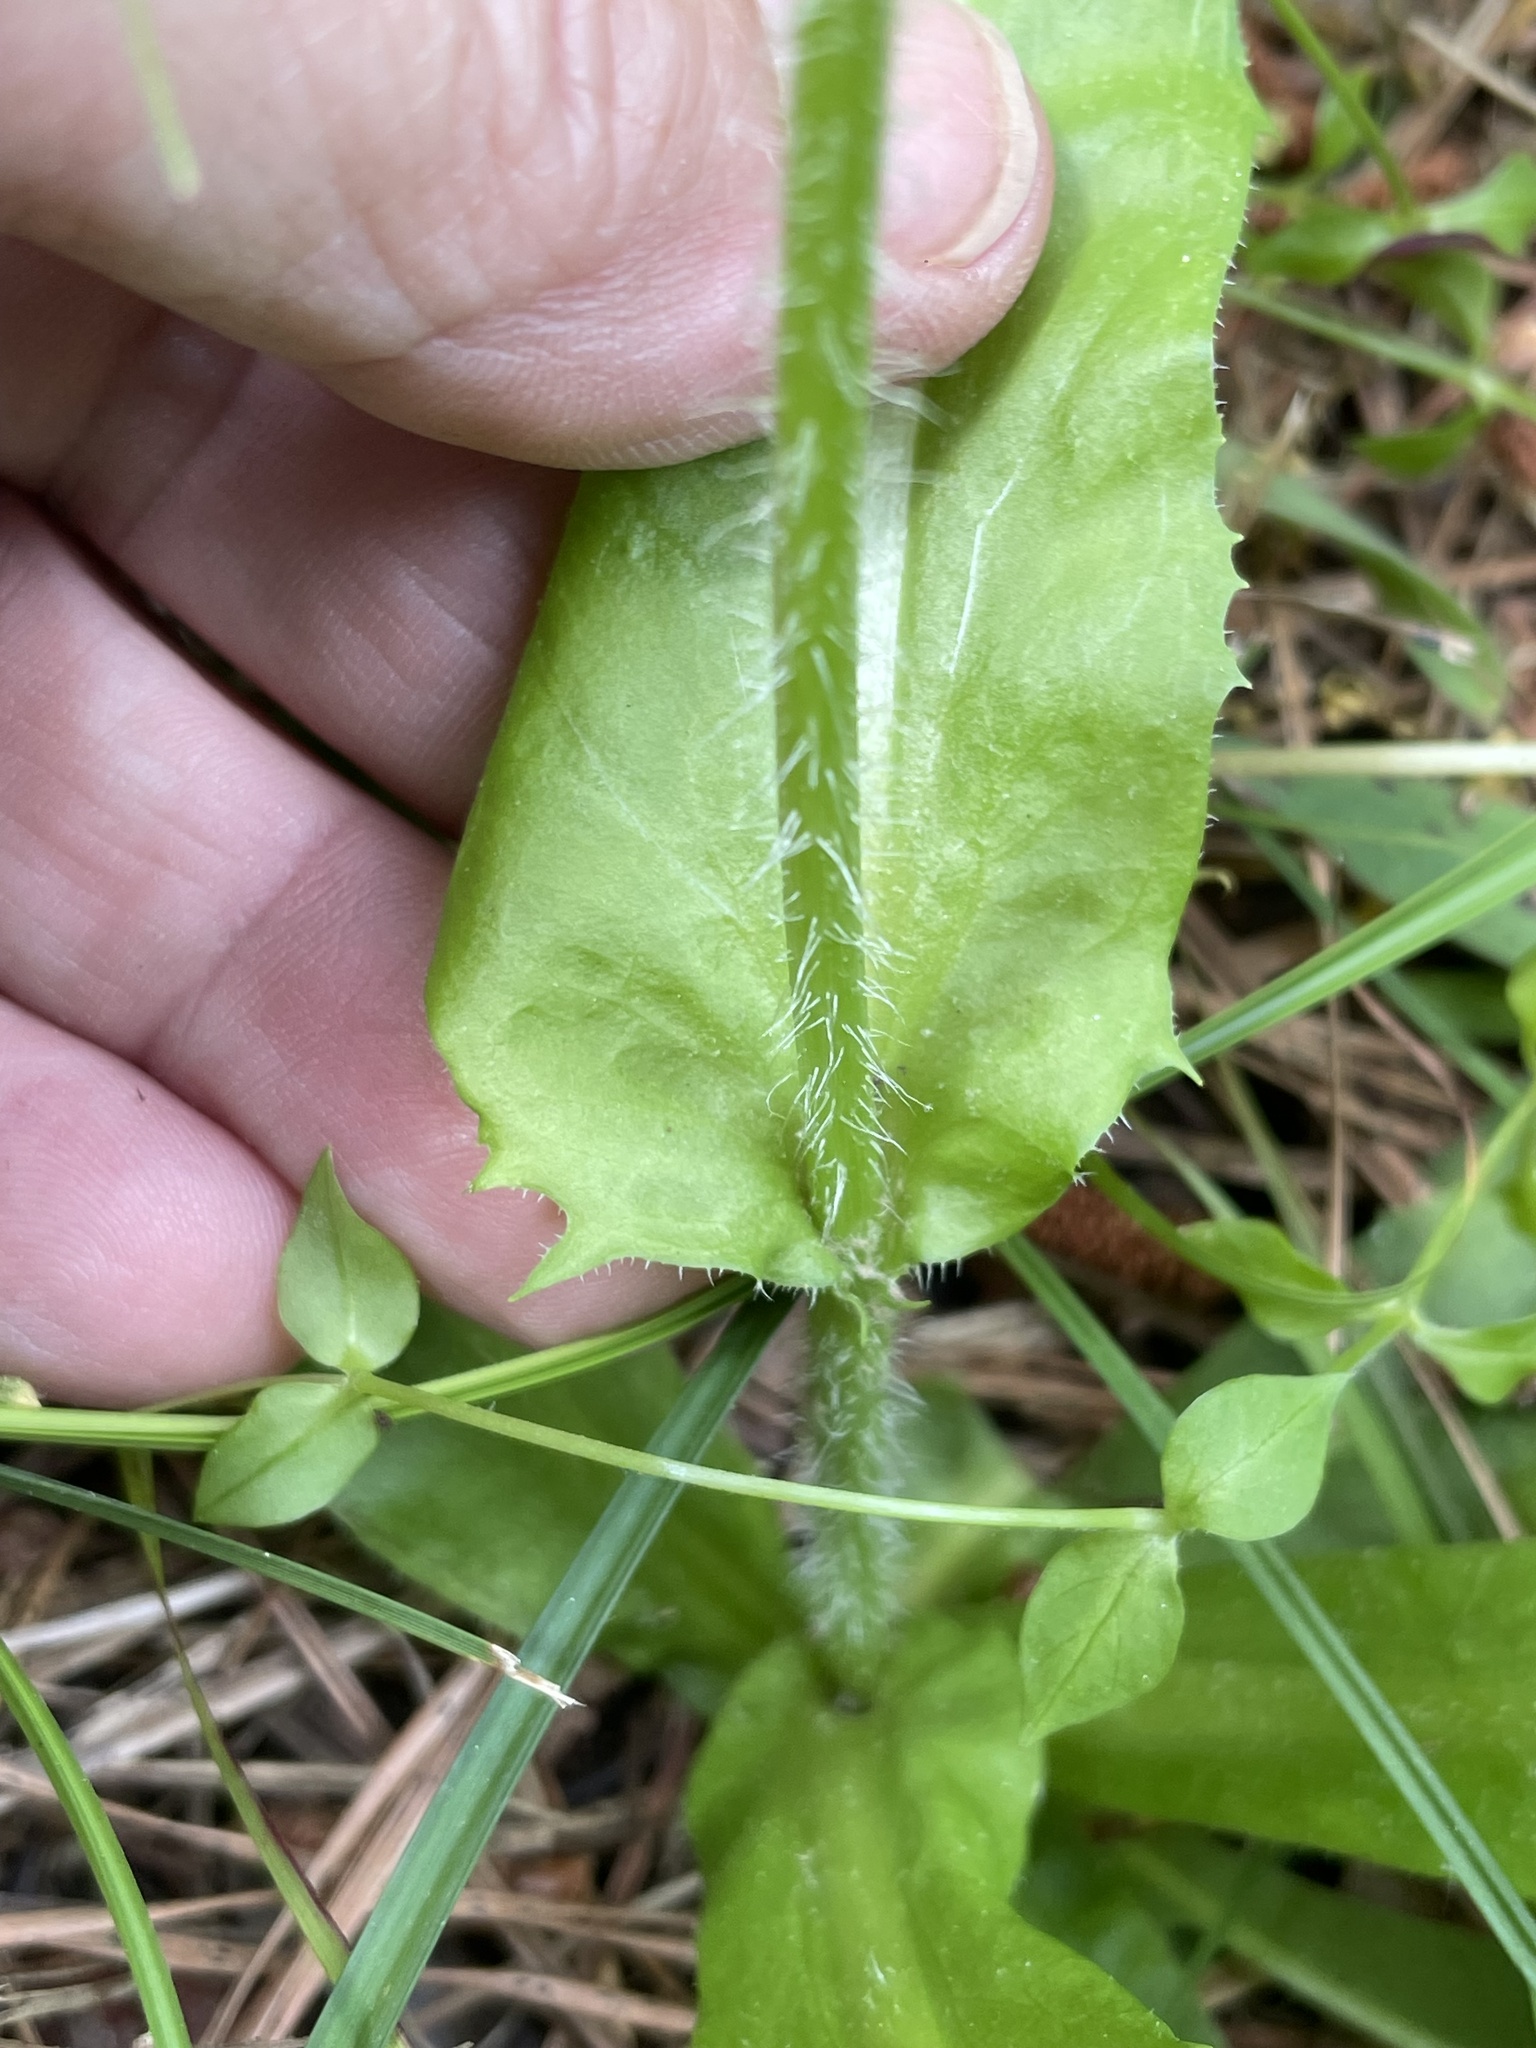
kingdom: Plantae
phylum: Tracheophyta
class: Magnoliopsida
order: Asterales
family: Asteraceae
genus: Hypochaeris
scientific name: Hypochaeris chillensis
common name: Brazilian cat's ear
